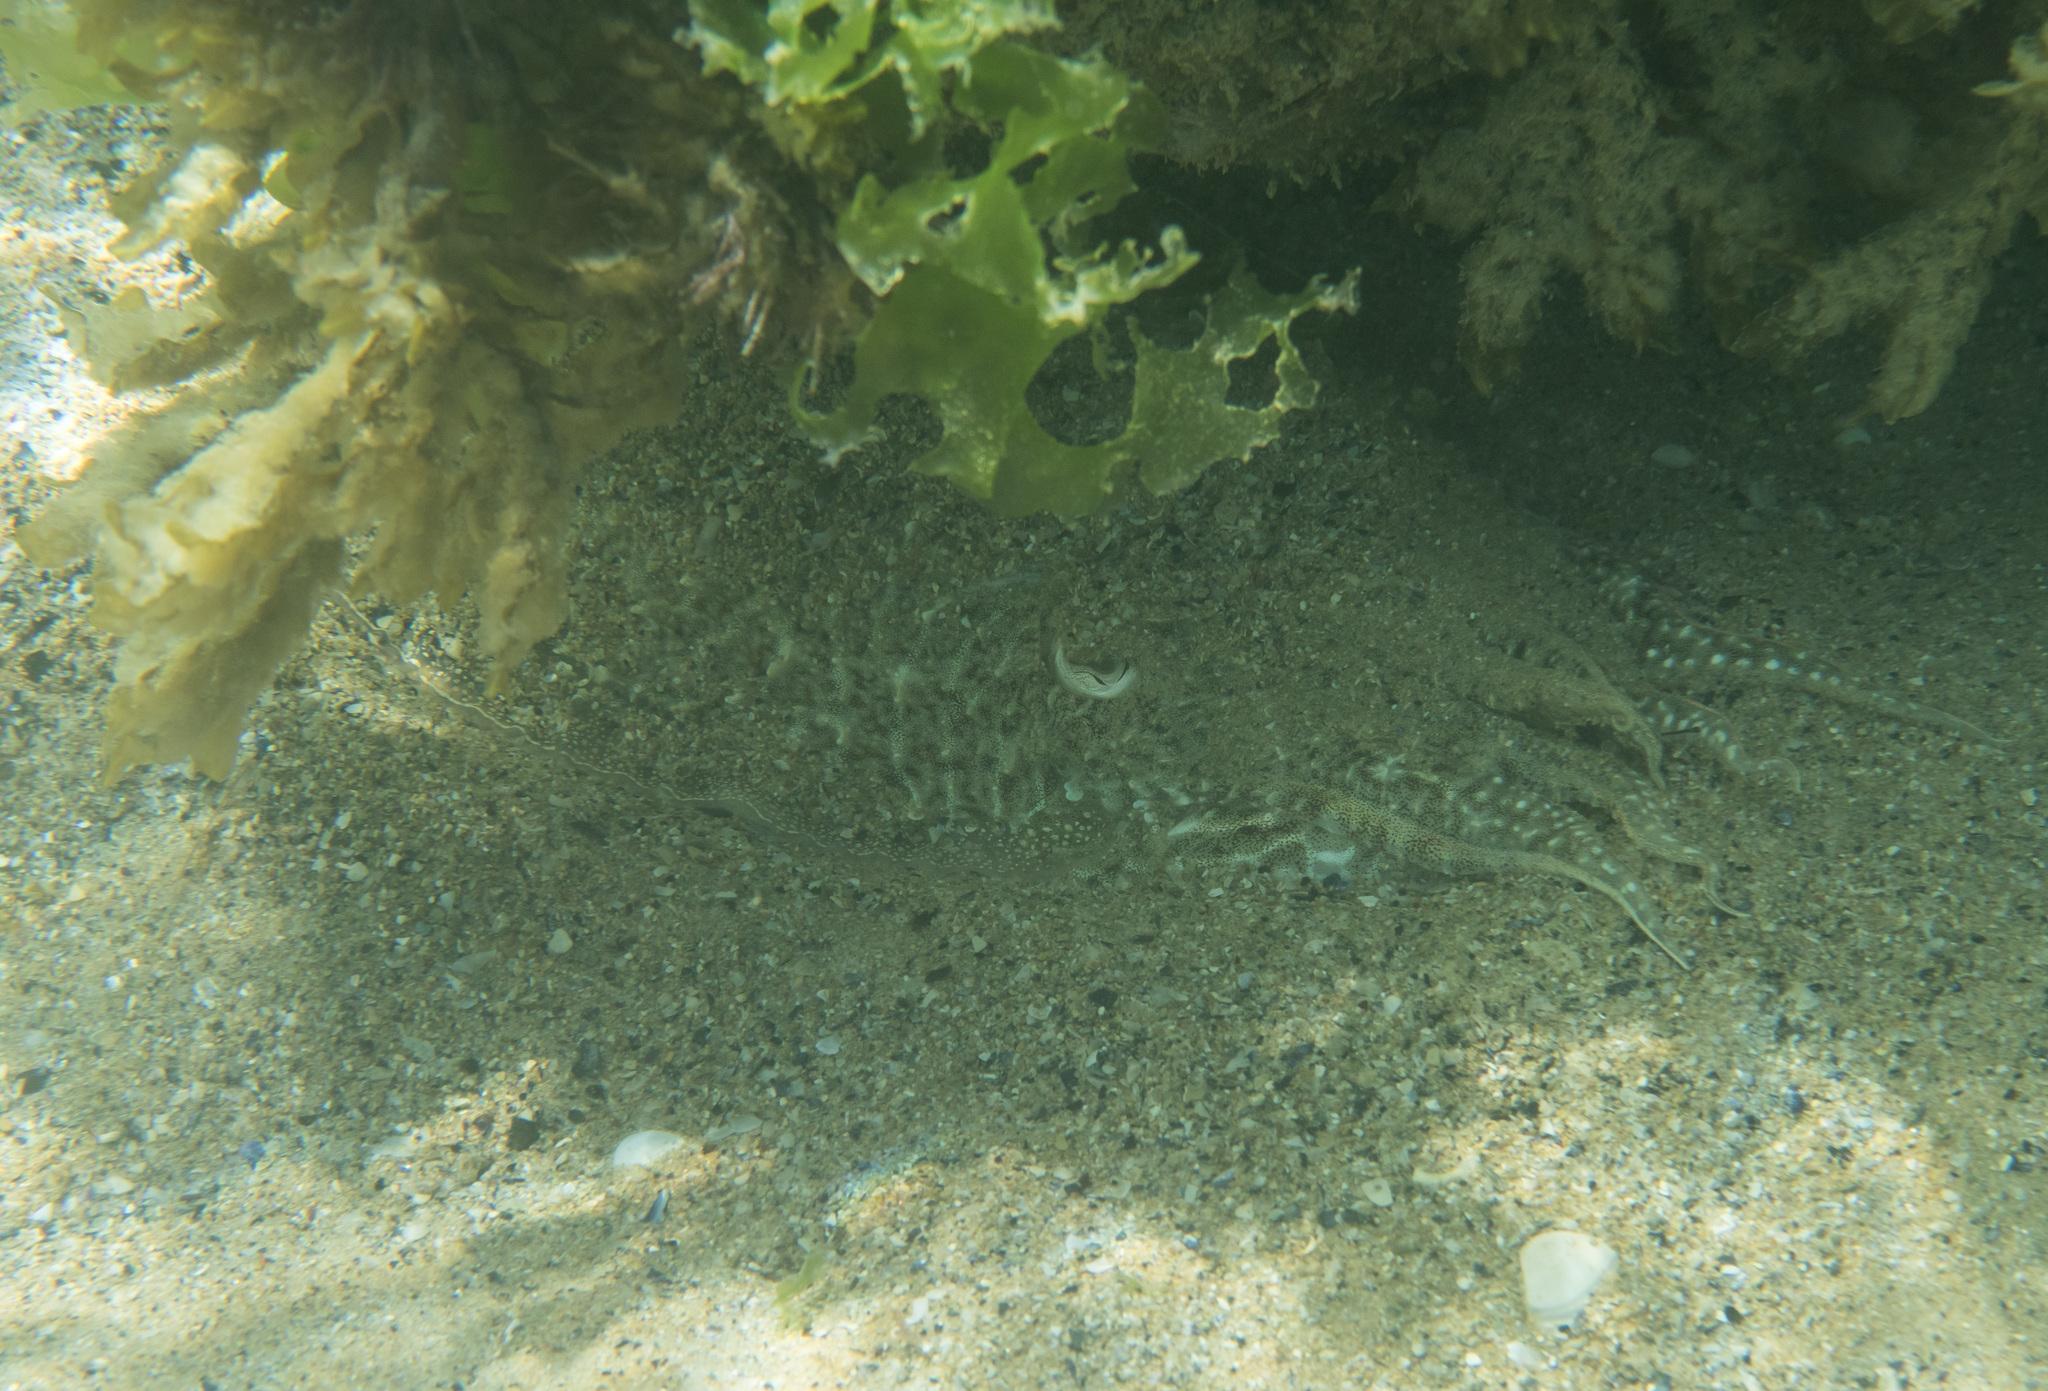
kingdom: Animalia
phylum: Mollusca
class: Cephalopoda
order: Sepiida
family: Sepiidae
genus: Sepia
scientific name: Sepia officinalis
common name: Common cuttlefish
